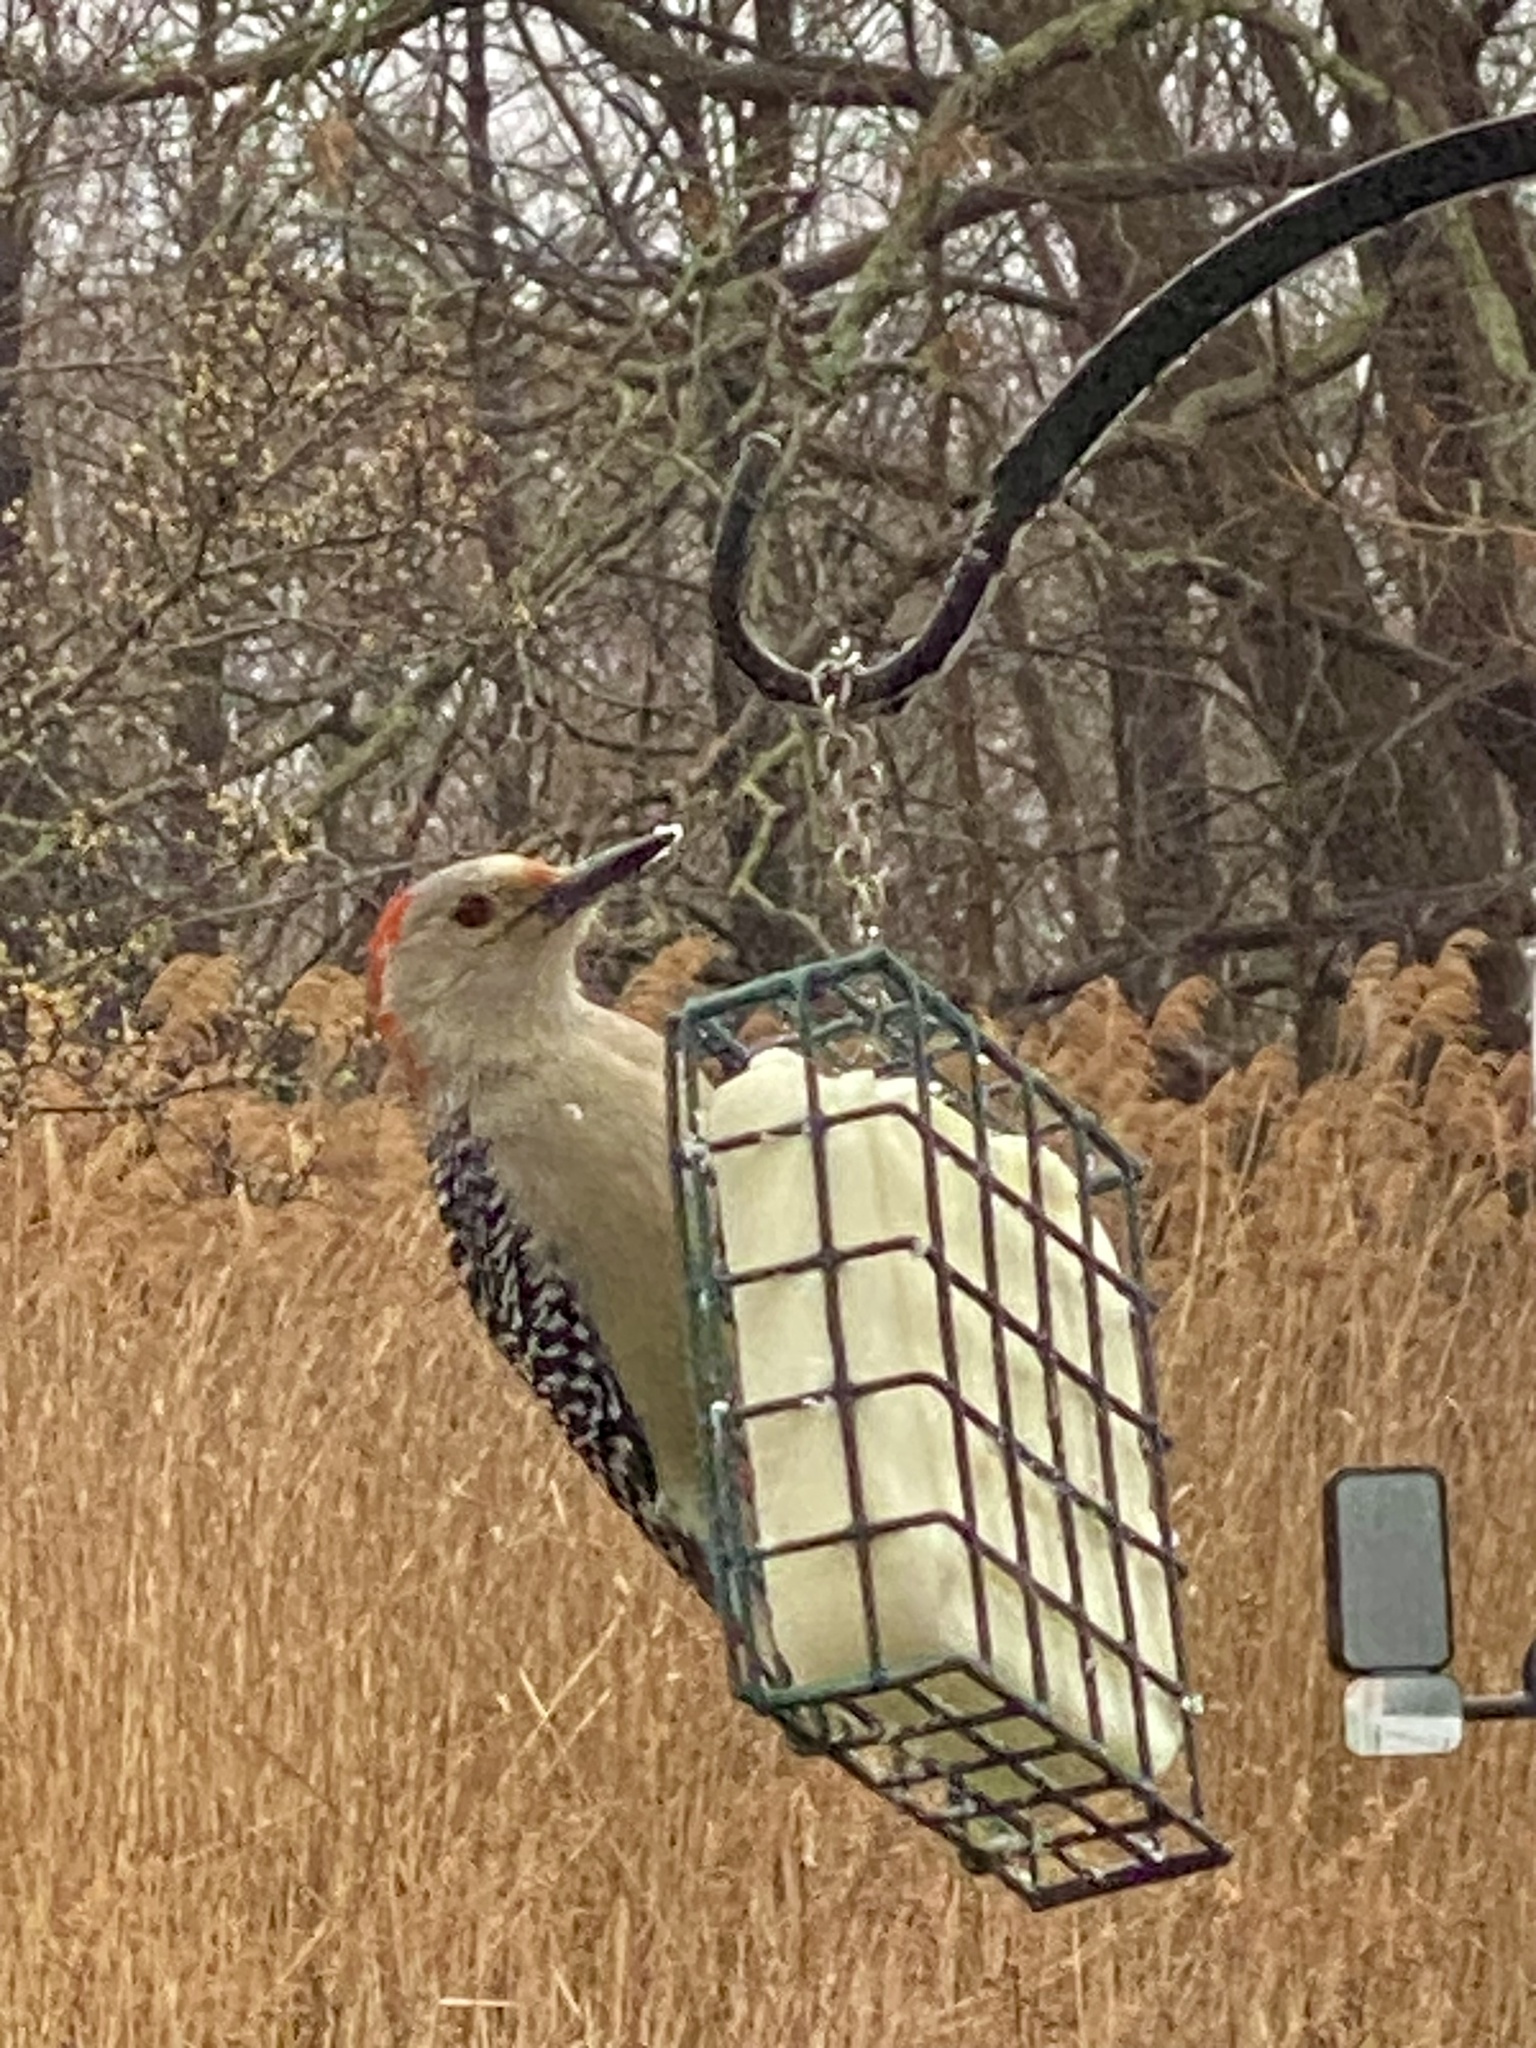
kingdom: Animalia
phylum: Chordata
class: Aves
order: Piciformes
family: Picidae
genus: Melanerpes
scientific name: Melanerpes carolinus
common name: Red-bellied woodpecker
